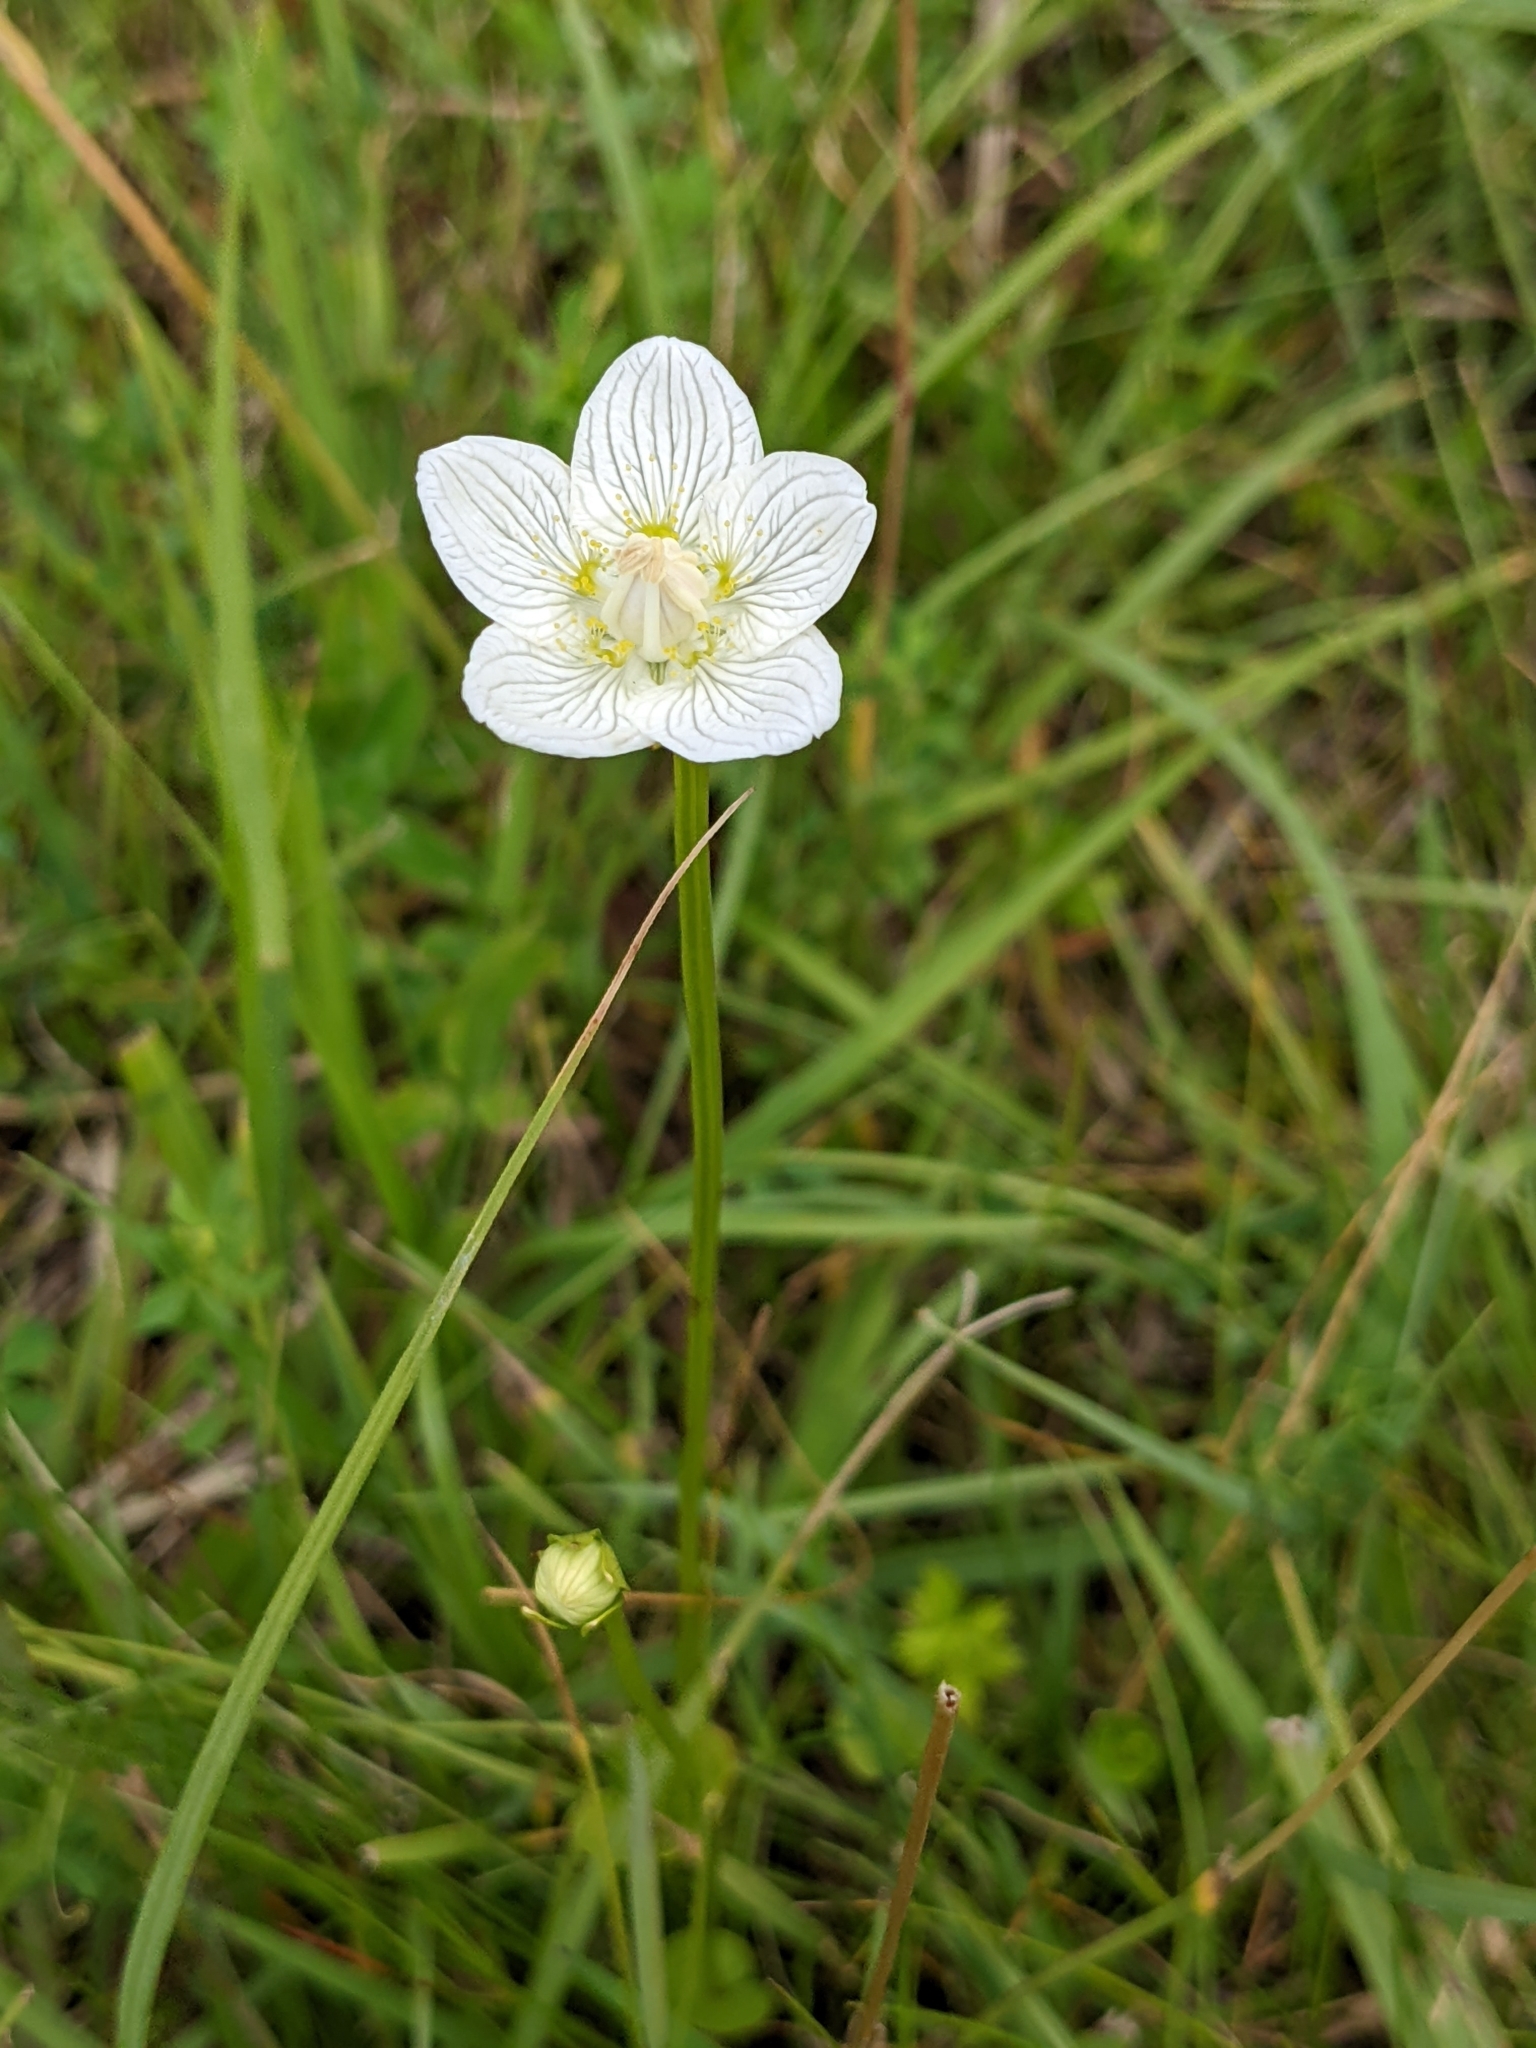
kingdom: Plantae
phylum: Tracheophyta
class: Magnoliopsida
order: Celastrales
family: Parnassiaceae
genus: Parnassia
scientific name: Parnassia palustris
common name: Grass-of-parnassus
